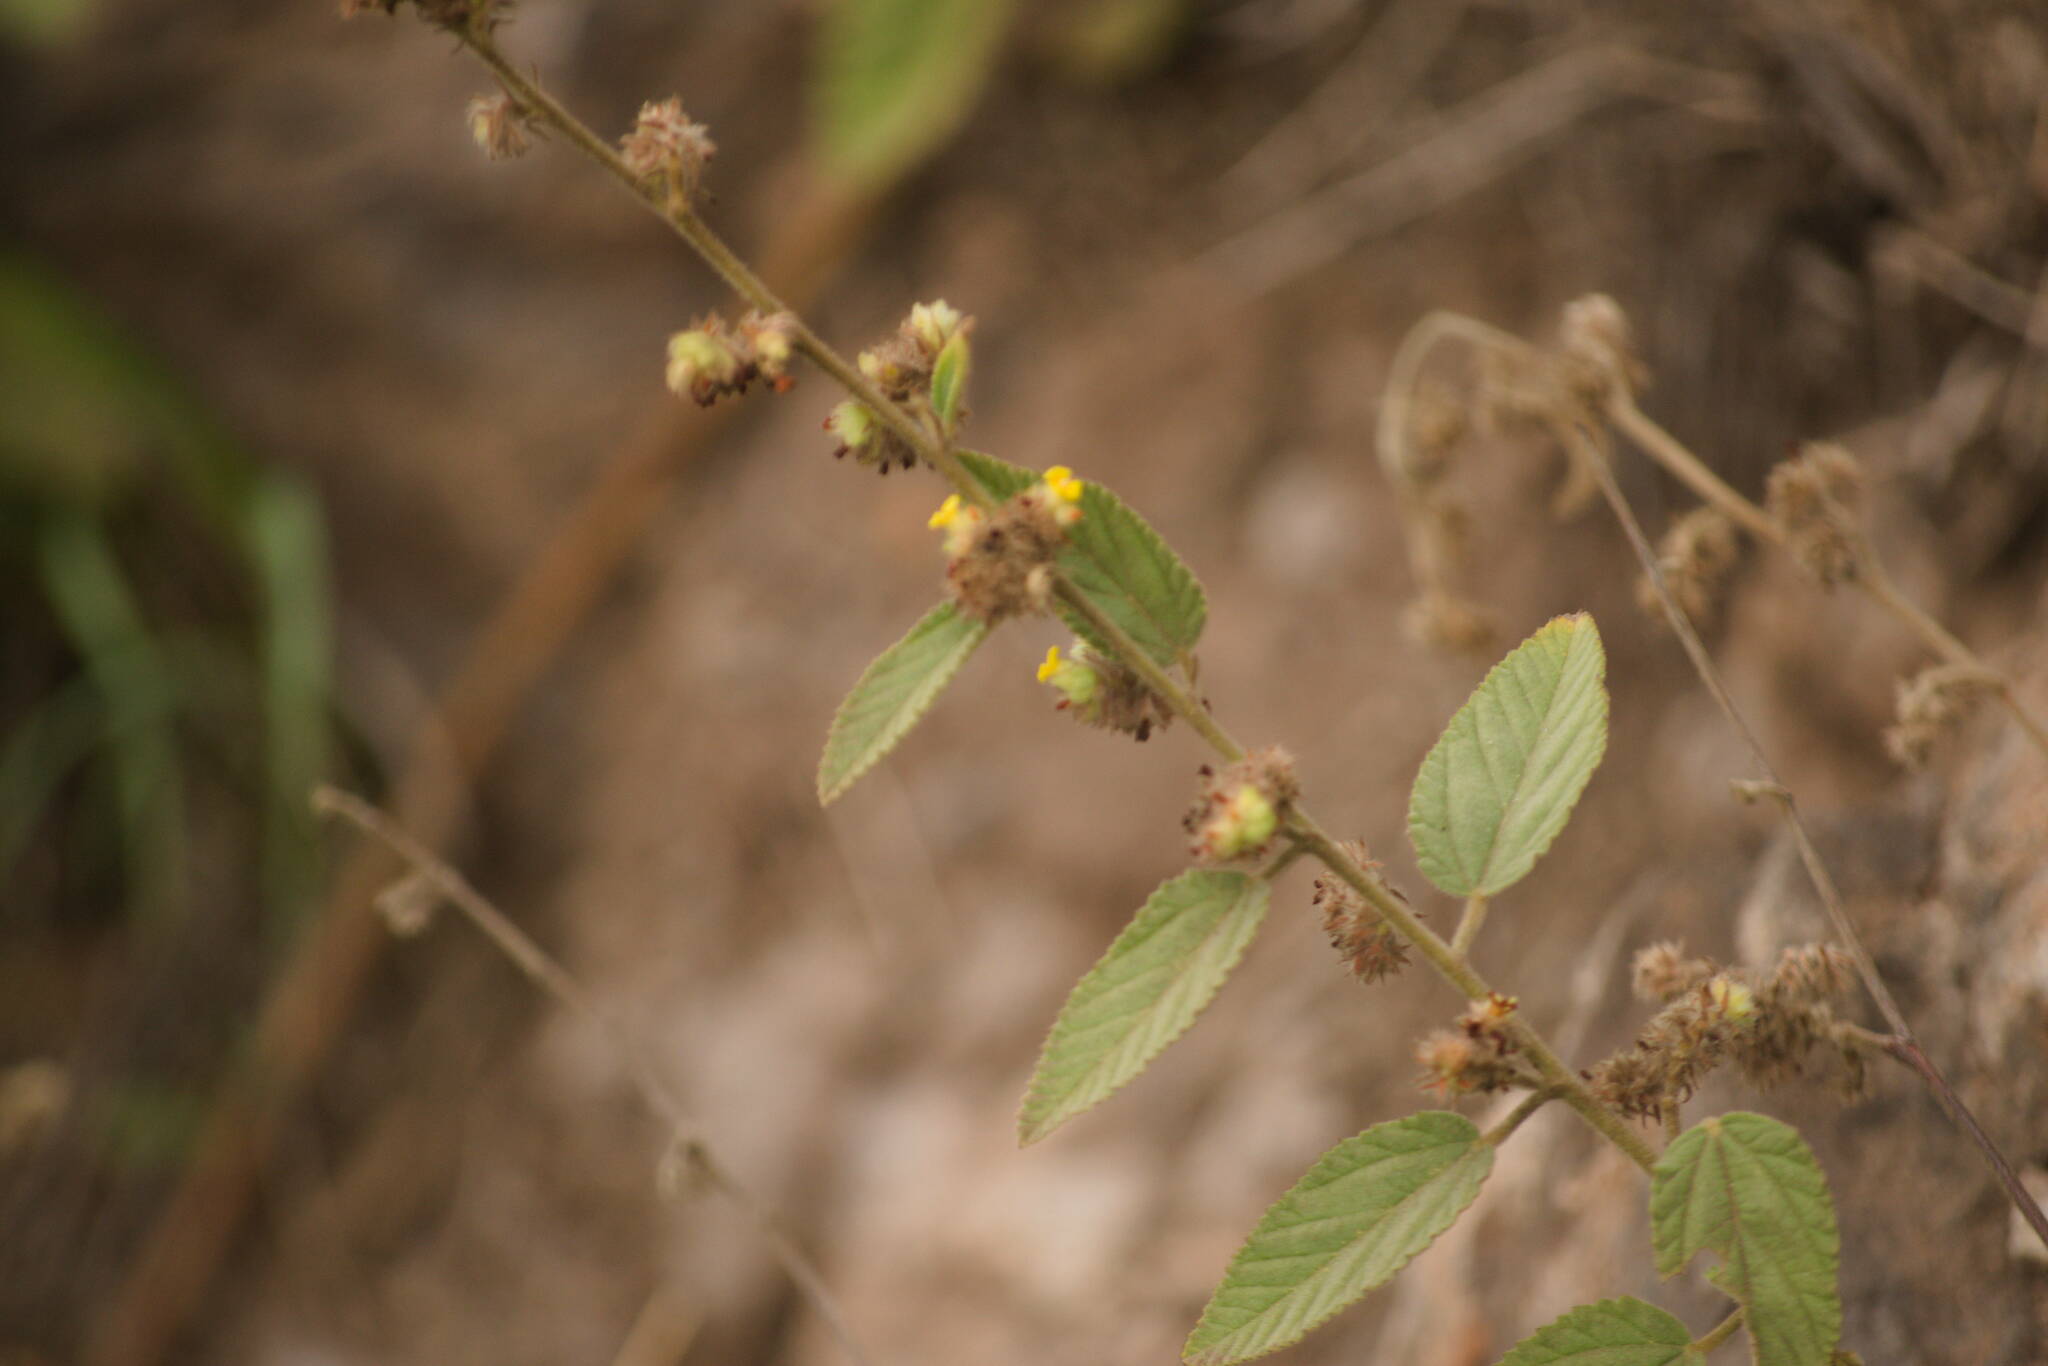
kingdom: Plantae
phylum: Tracheophyta
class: Magnoliopsida
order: Malvales
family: Malvaceae
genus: Waltheria
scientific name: Waltheria indica
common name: Leather-coat
